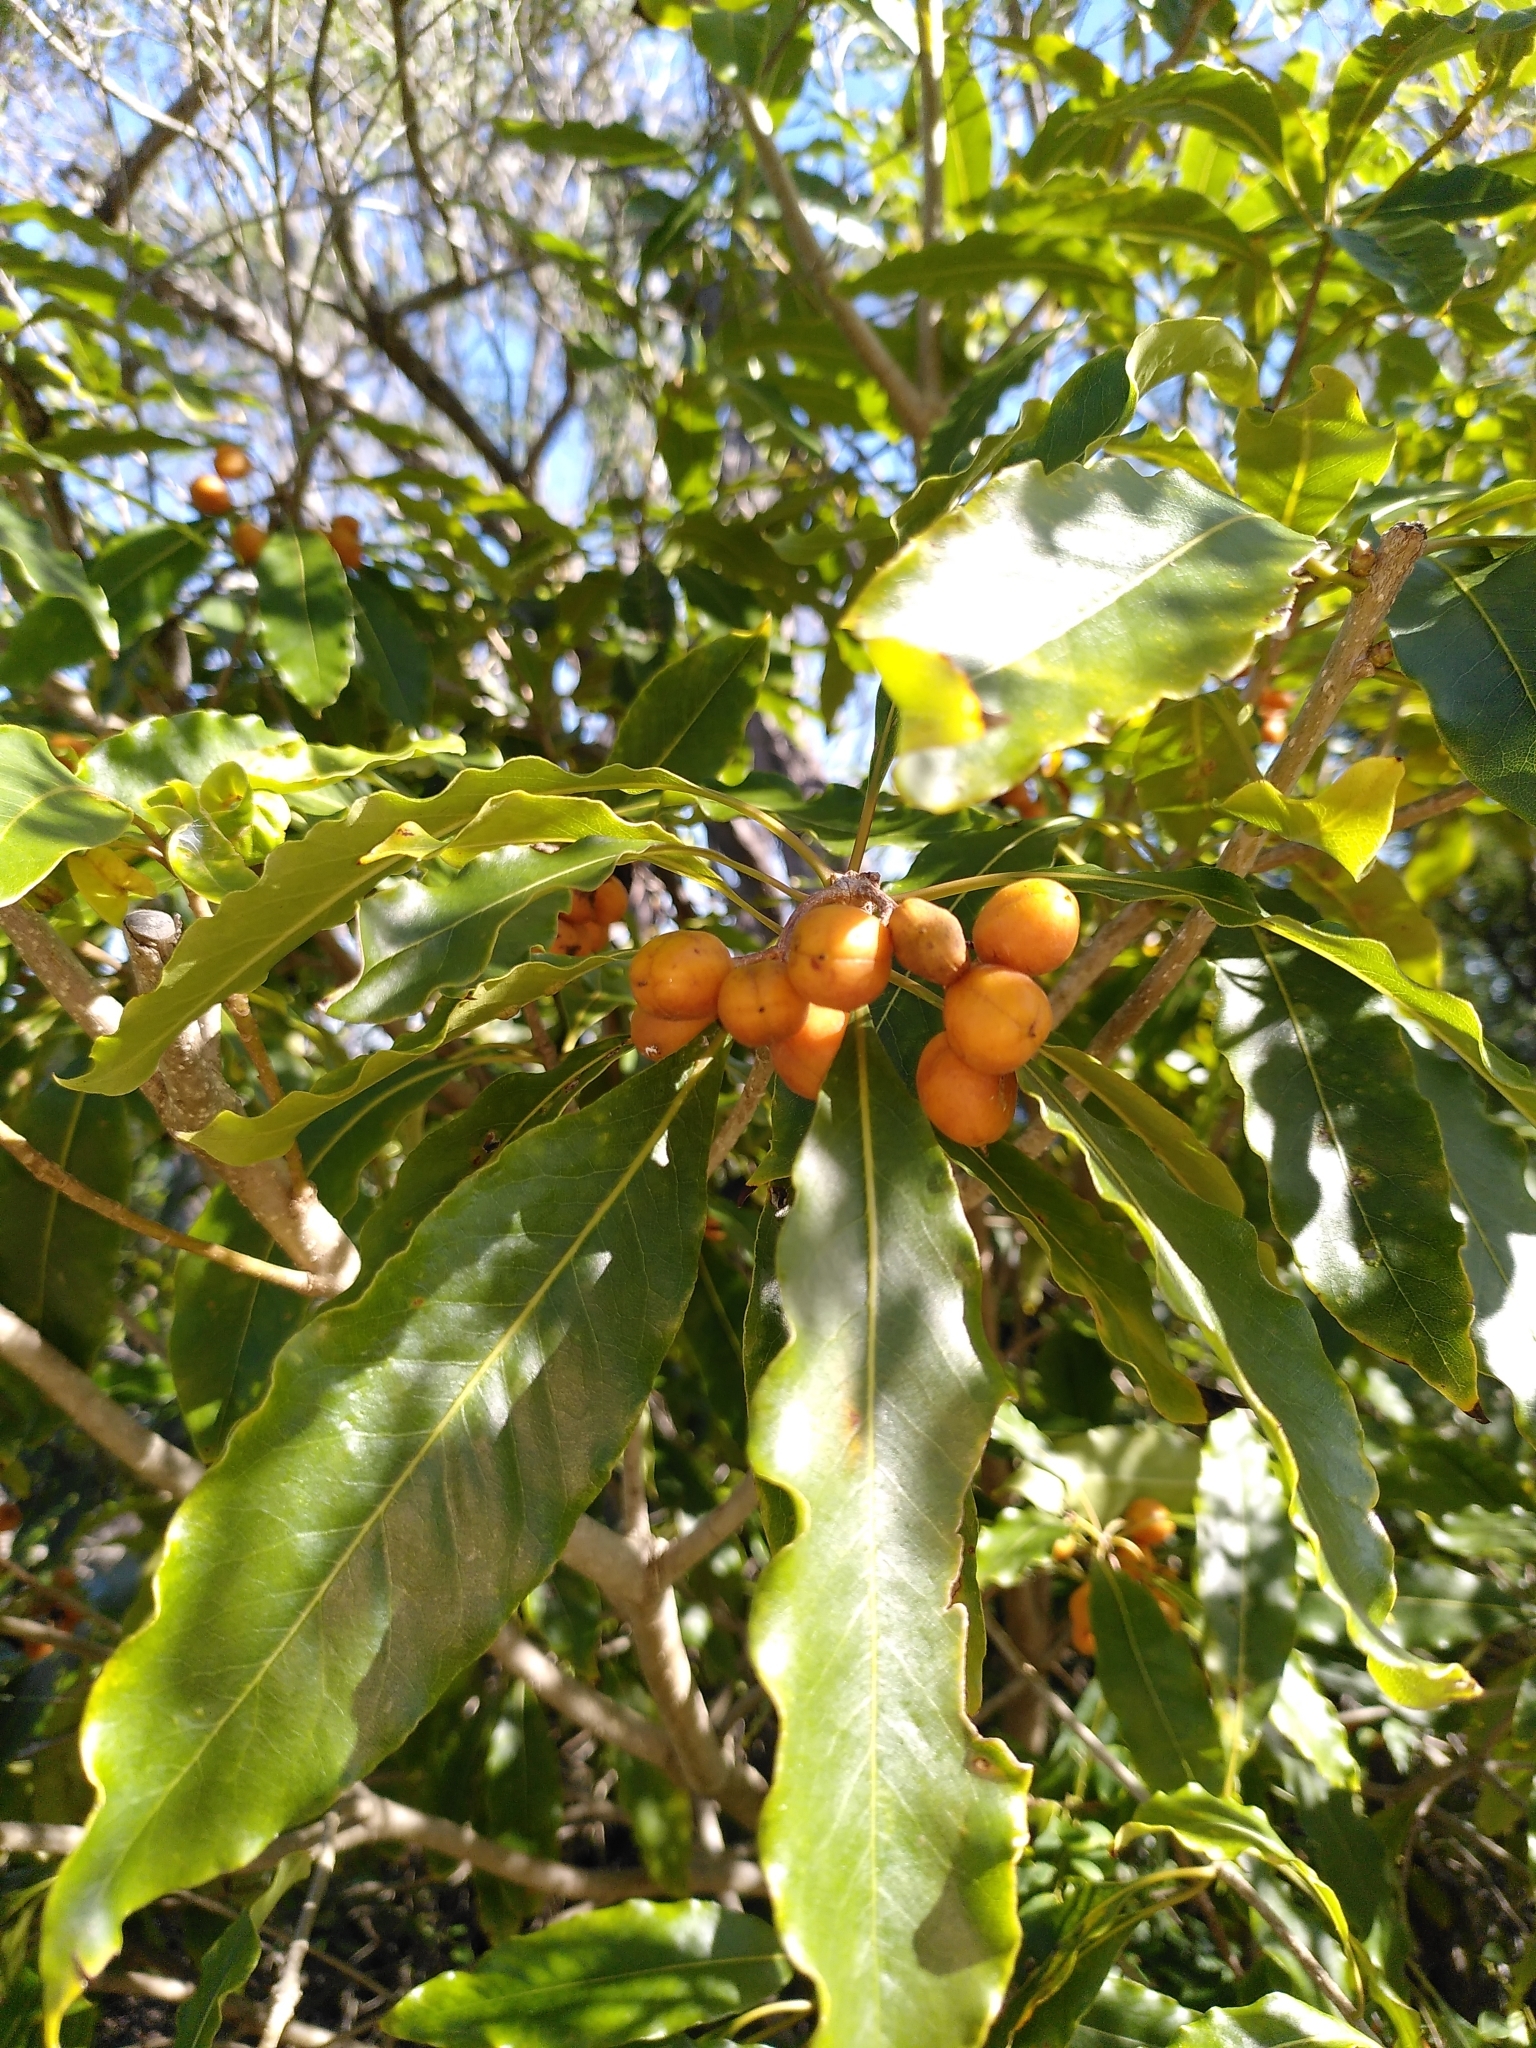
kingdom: Plantae
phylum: Tracheophyta
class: Magnoliopsida
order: Apiales
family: Pittosporaceae
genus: Pittosporum
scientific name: Pittosporum undulatum
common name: Australian cheesewood
